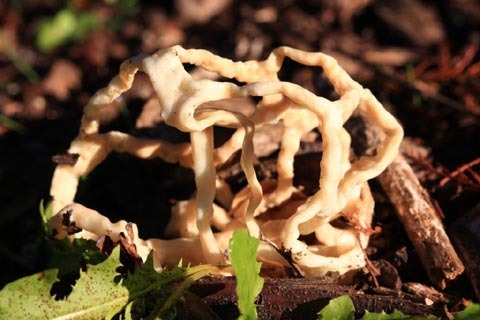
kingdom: Fungi
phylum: Basidiomycota
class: Agaricomycetes
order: Phallales
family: Phallaceae
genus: Ileodictyon
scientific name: Ileodictyon gracile
